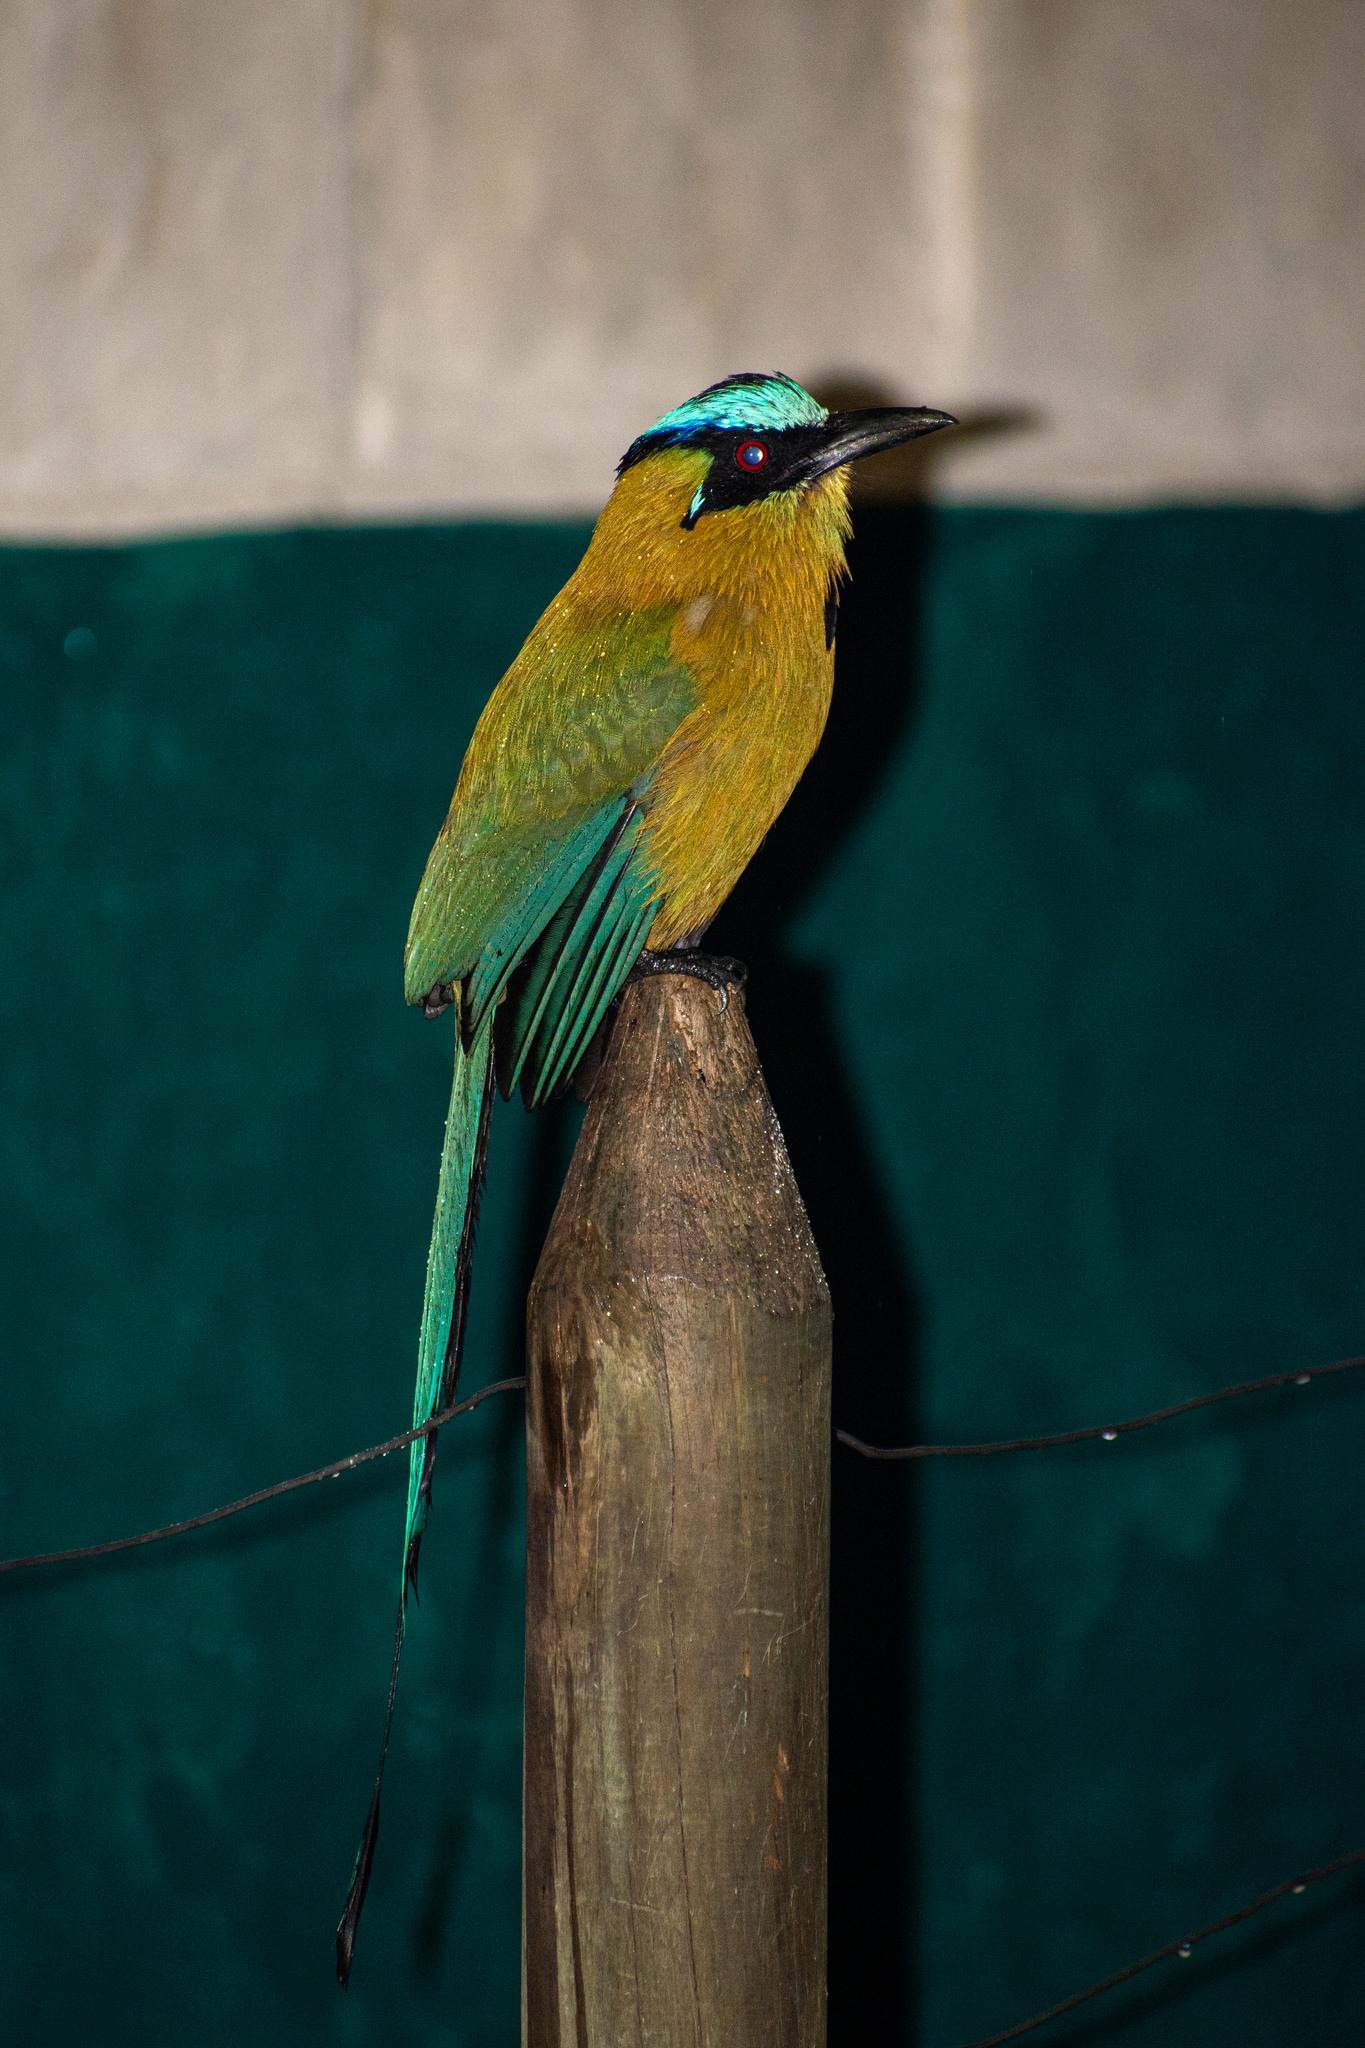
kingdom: Animalia
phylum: Chordata
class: Aves
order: Coraciiformes
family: Momotidae
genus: Momotus
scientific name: Momotus aequatorialis
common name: Andean motmot
